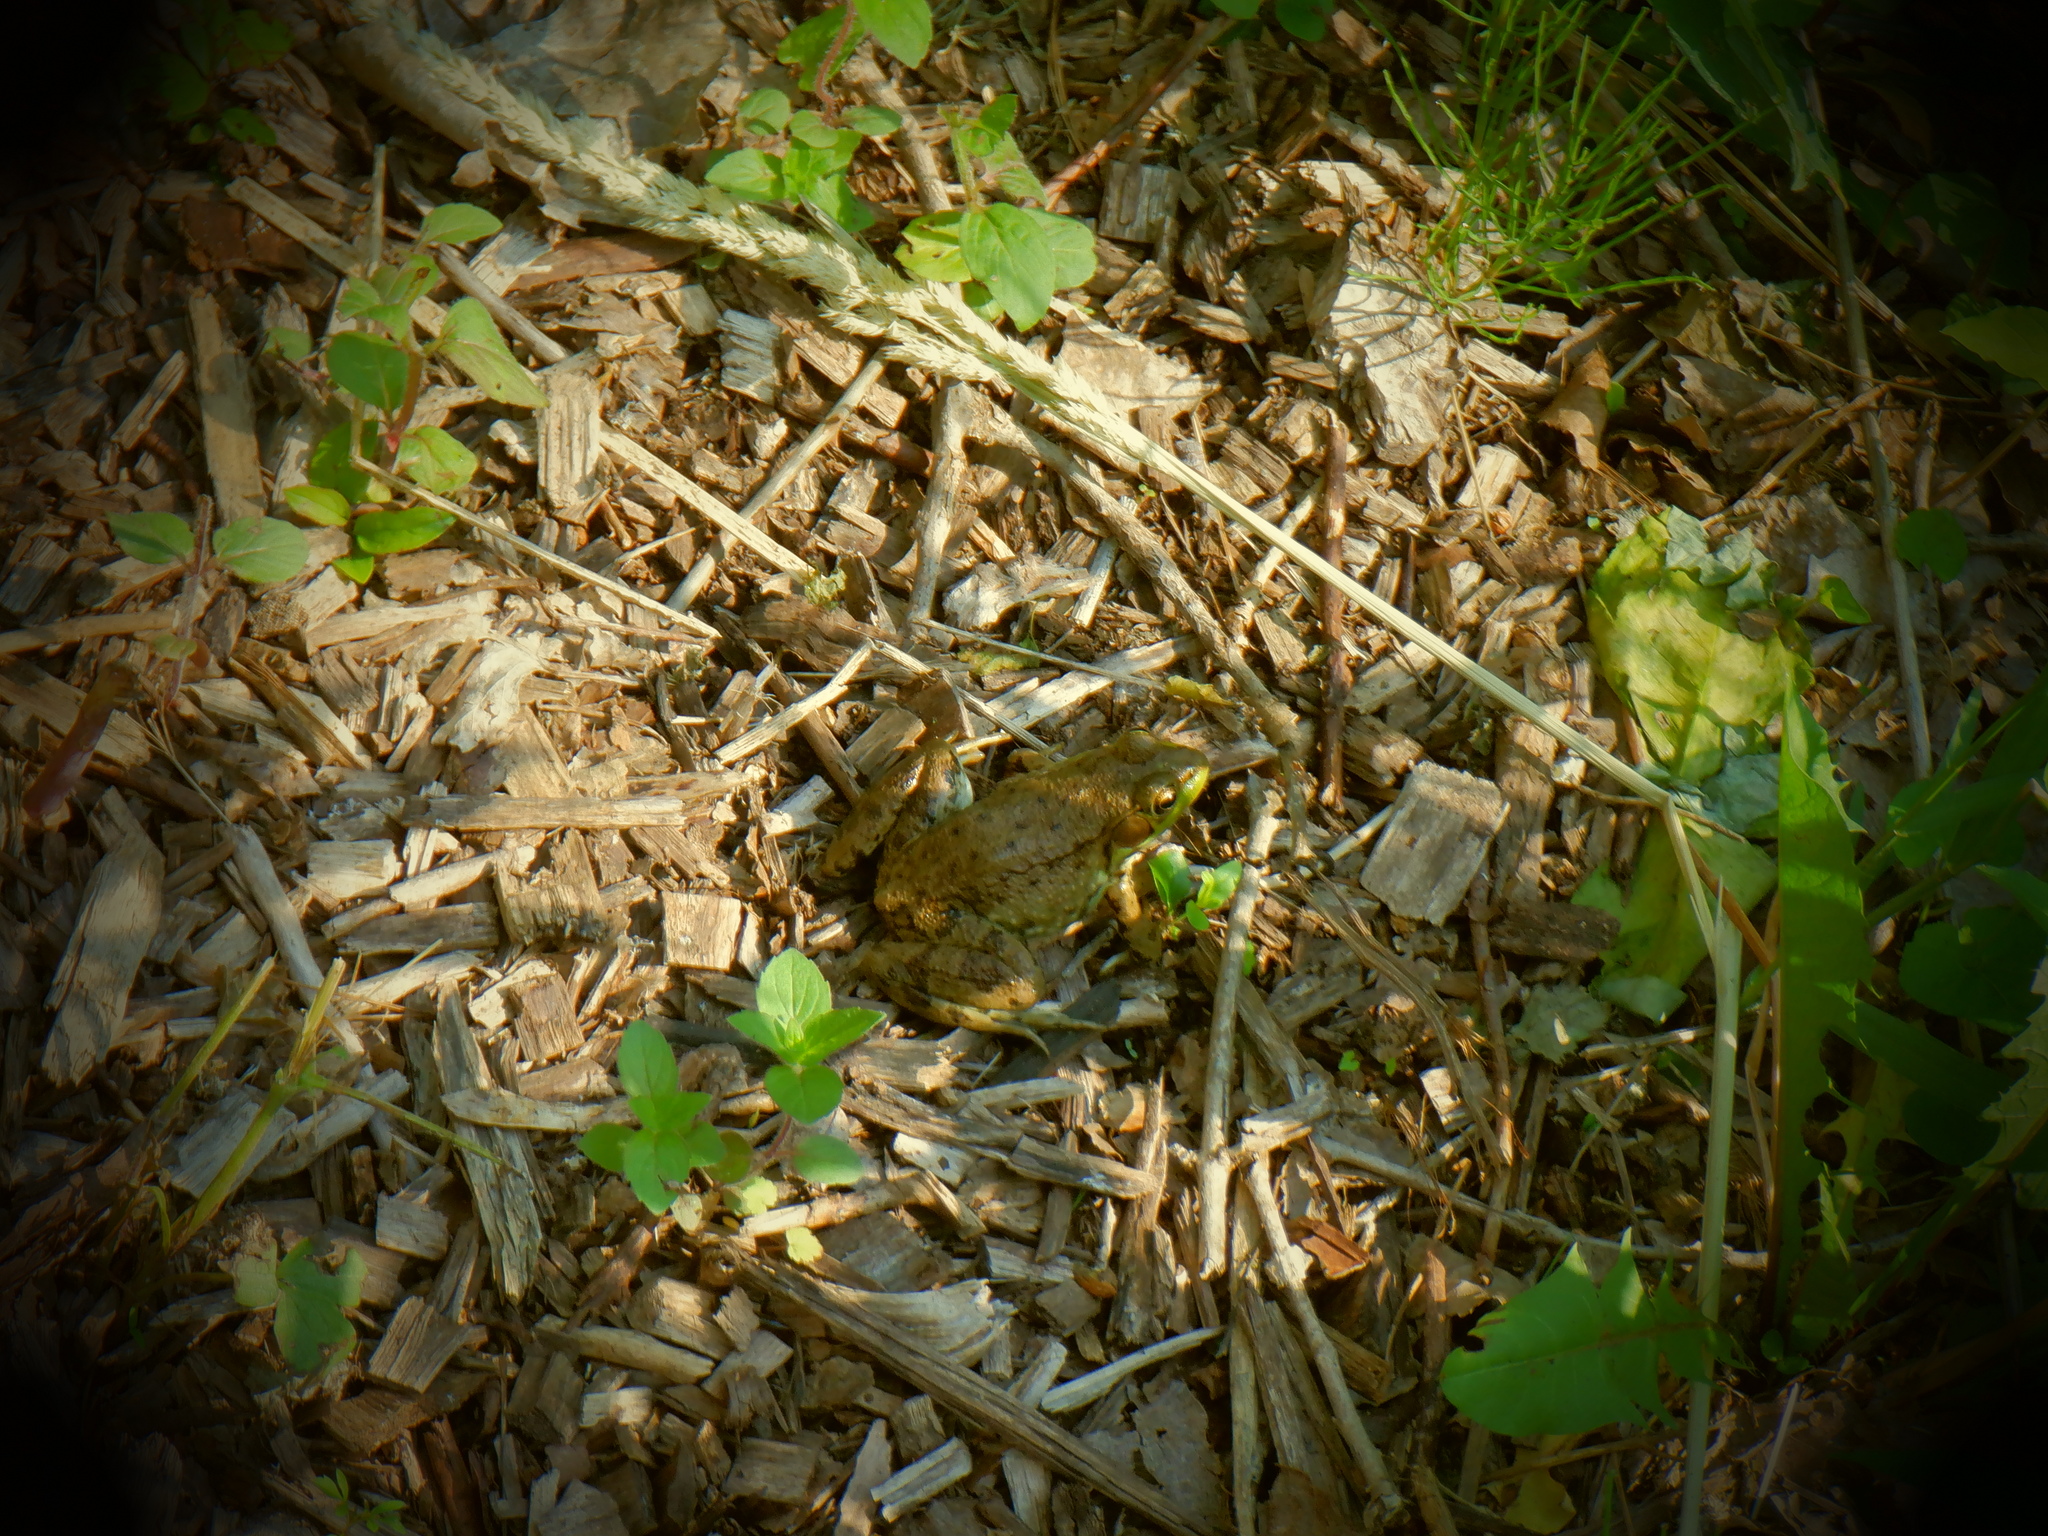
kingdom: Animalia
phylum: Chordata
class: Amphibia
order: Anura
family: Ranidae
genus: Lithobates
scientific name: Lithobates clamitans
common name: Green frog
